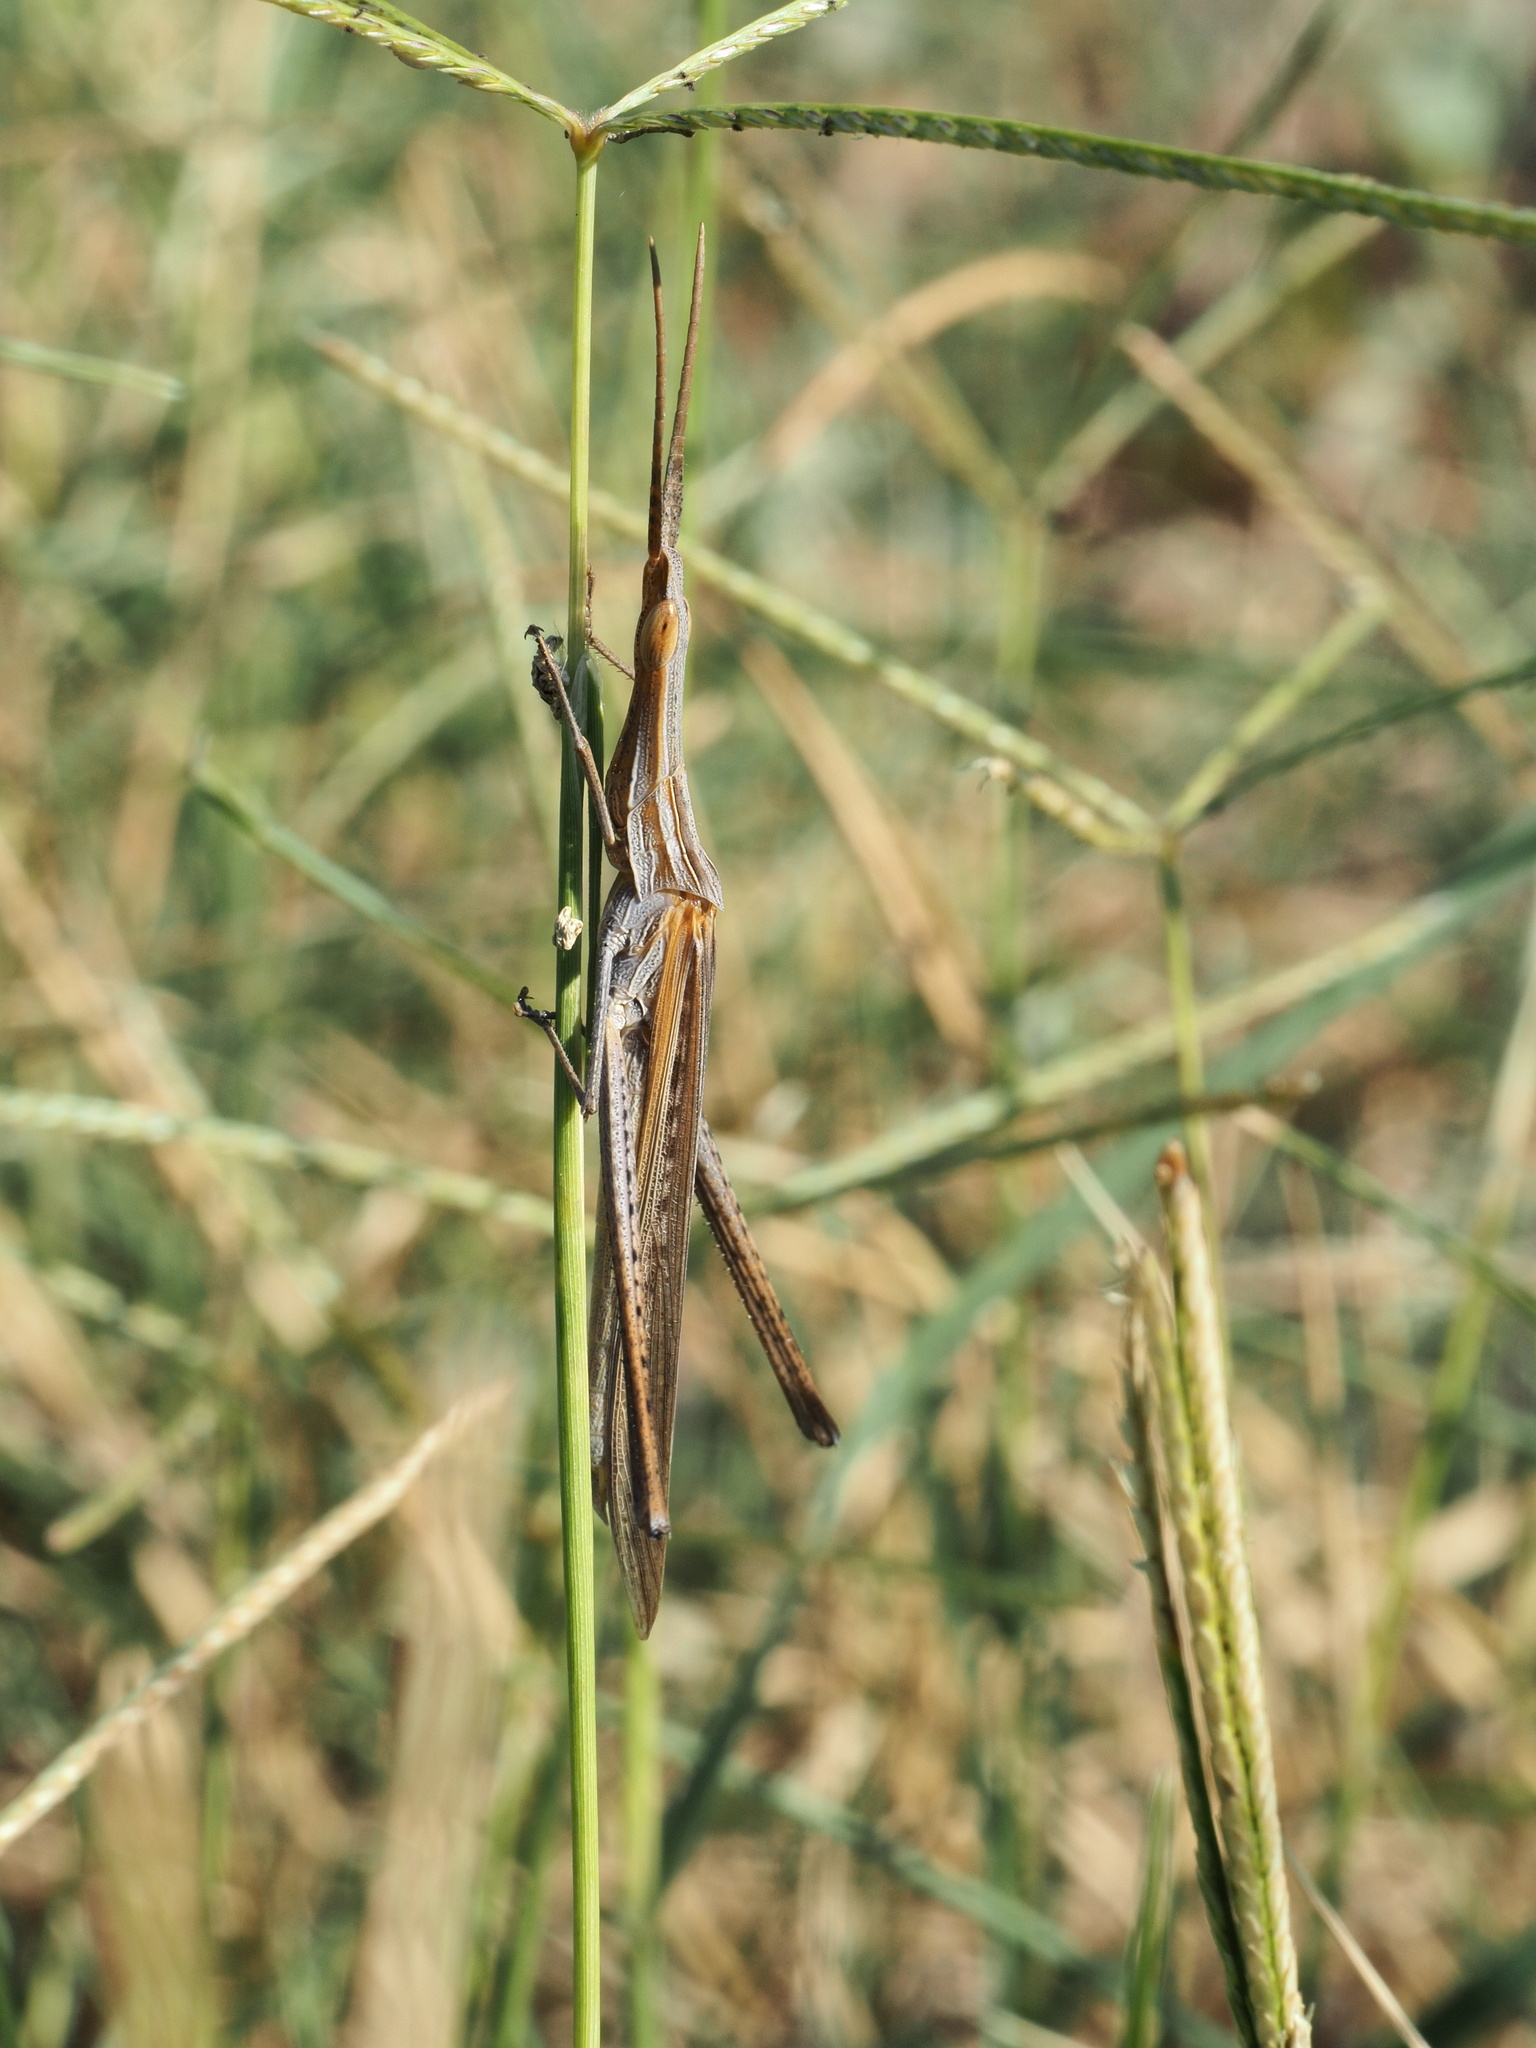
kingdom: Animalia
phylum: Arthropoda
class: Insecta
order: Orthoptera
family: Acrididae
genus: Acrida
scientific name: Acrida ungarica
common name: Common cone-headed grasshopper
